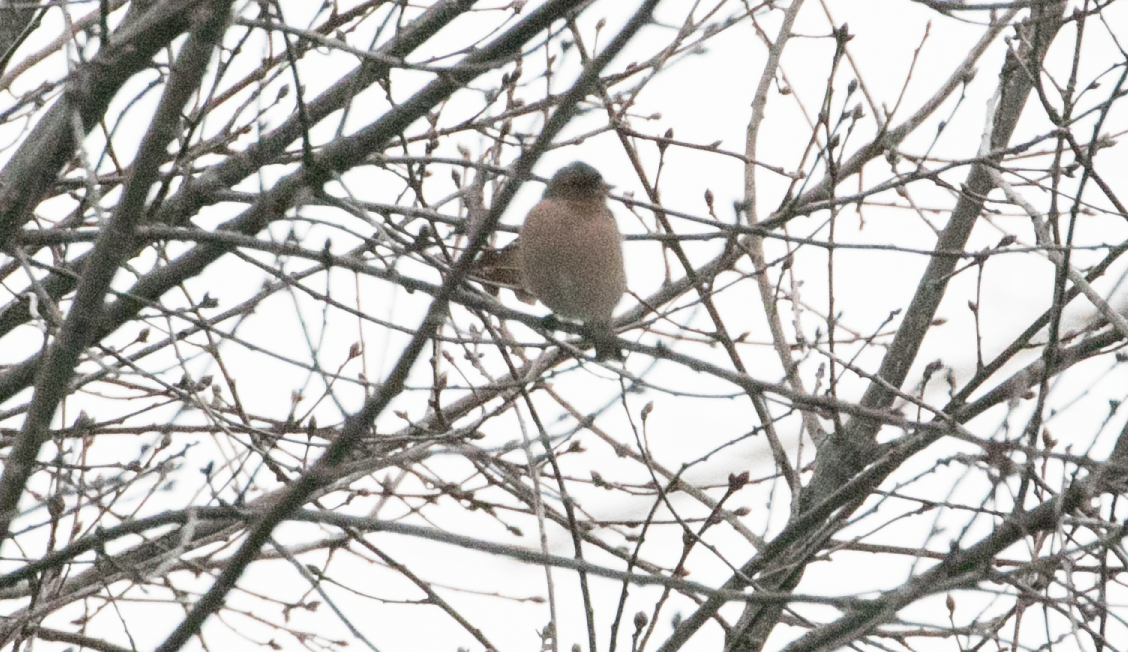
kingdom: Animalia
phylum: Chordata
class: Aves
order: Passeriformes
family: Fringillidae
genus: Fringilla
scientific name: Fringilla coelebs
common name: Common chaffinch
